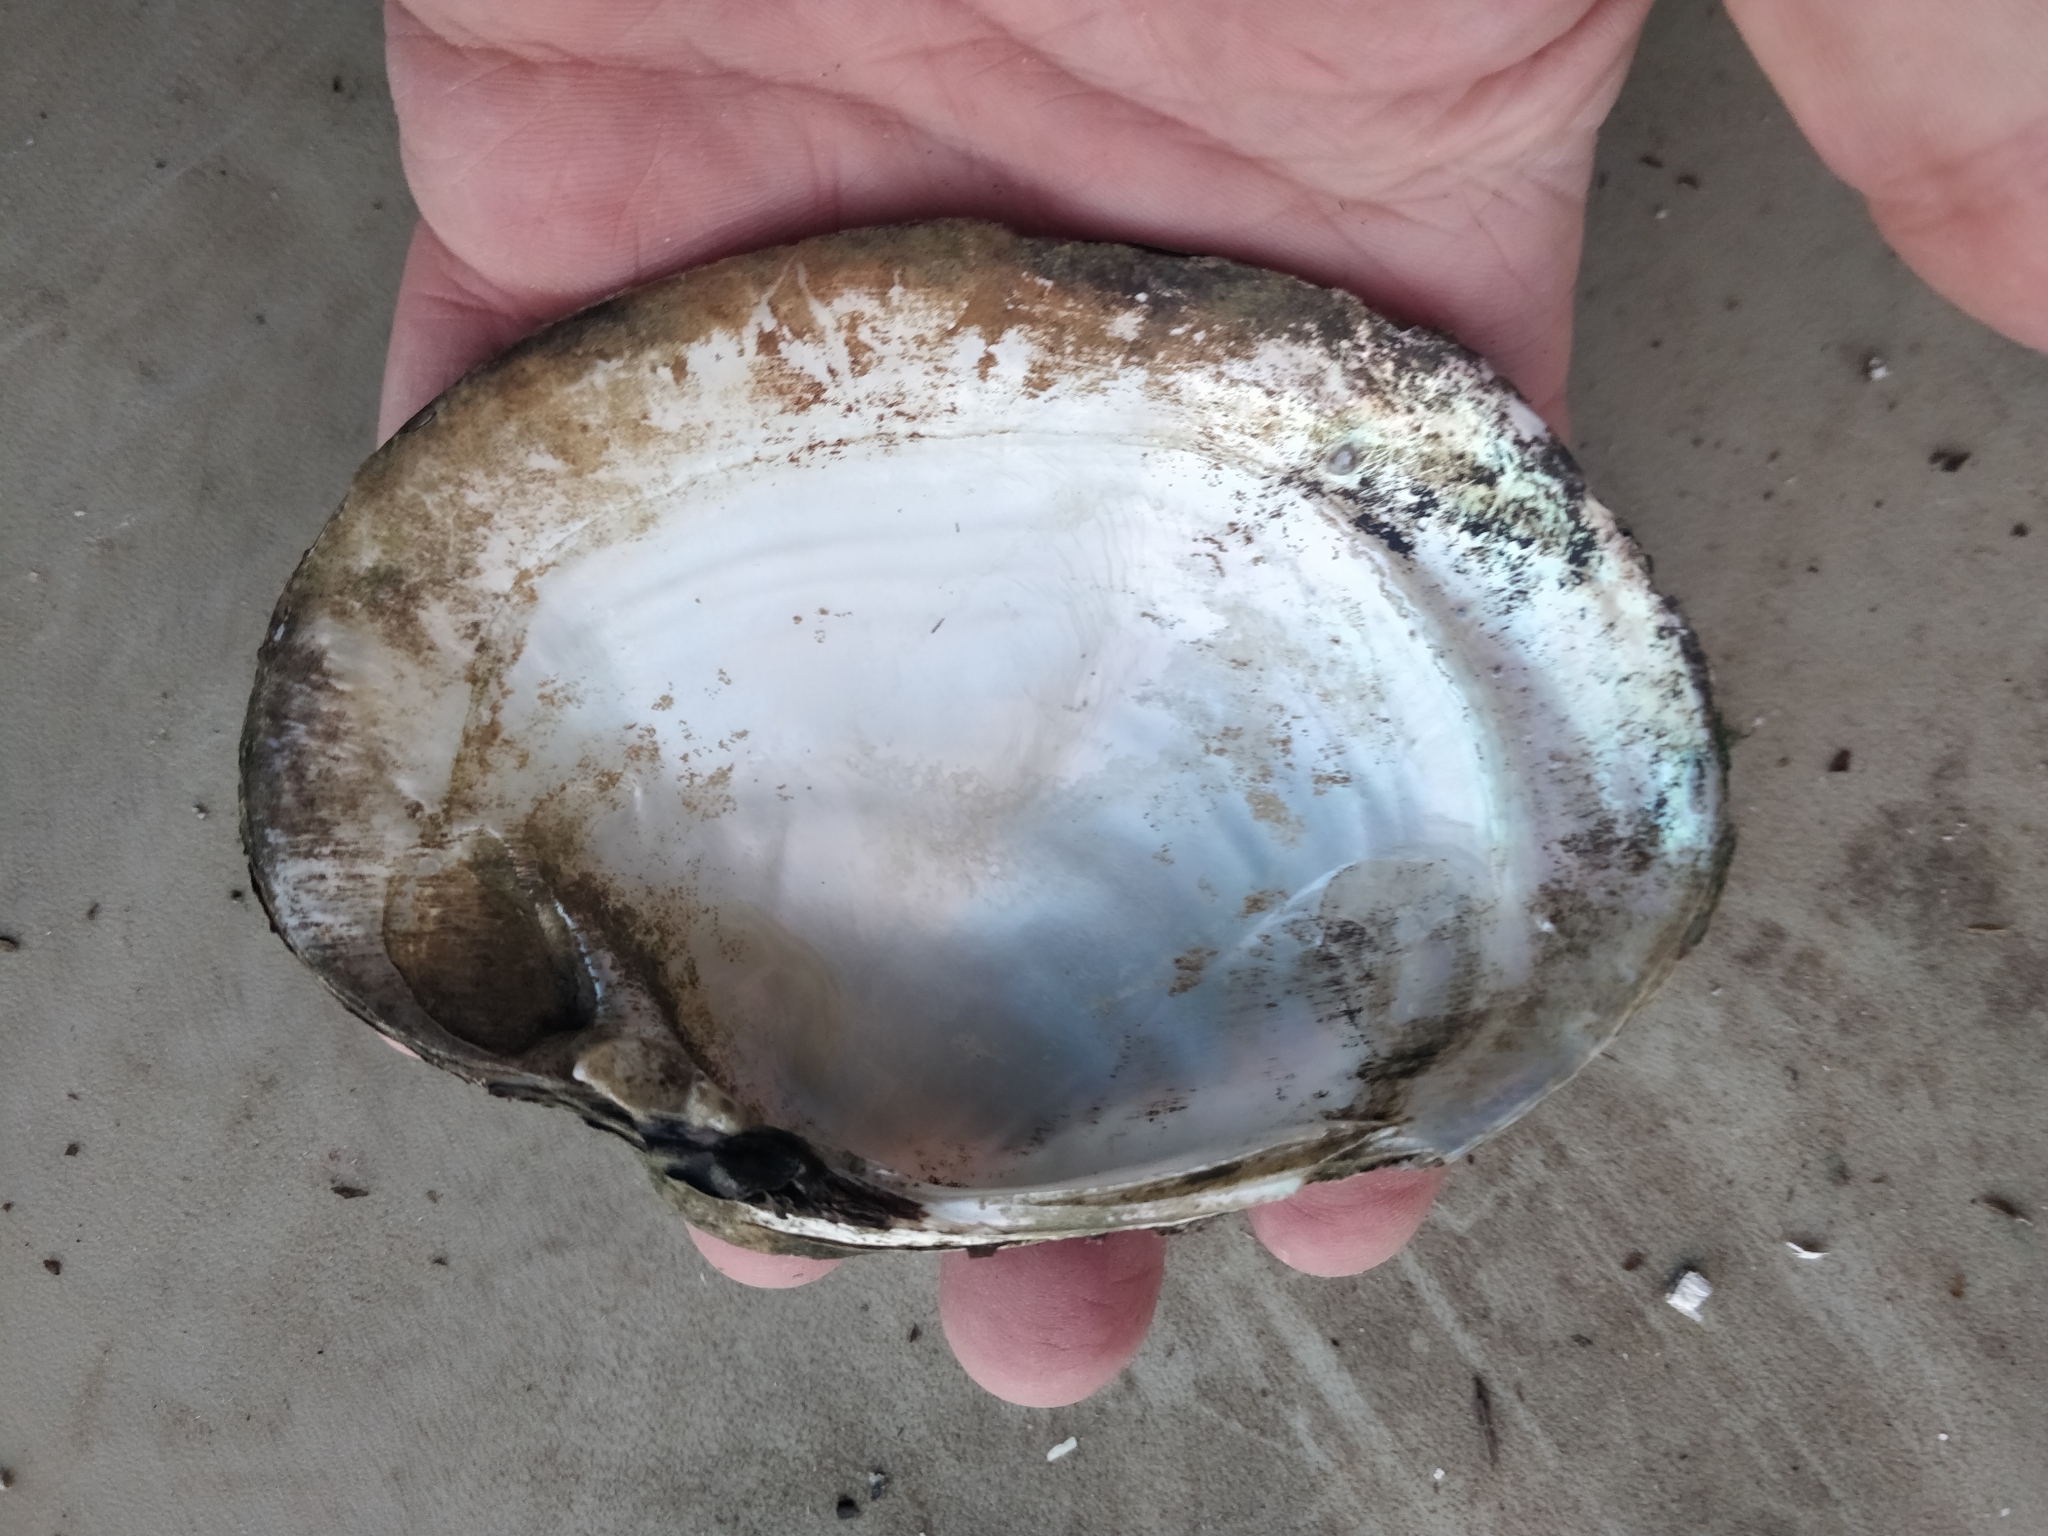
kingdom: Animalia
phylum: Mollusca
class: Bivalvia
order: Unionida
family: Unionidae
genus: Lampsilis
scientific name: Lampsilis cardium
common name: Plain pocketbook
